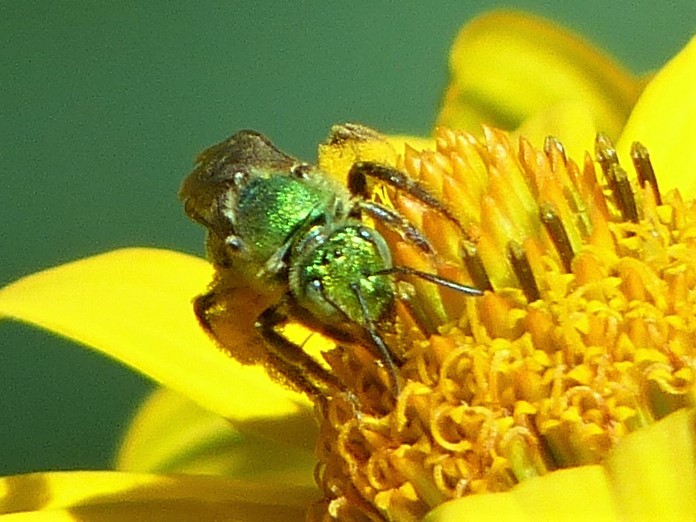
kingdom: Animalia
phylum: Arthropoda
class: Insecta
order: Hymenoptera
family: Halictidae
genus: Agapostemon
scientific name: Agapostemon virescens
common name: Bicolored striped sweat bee
